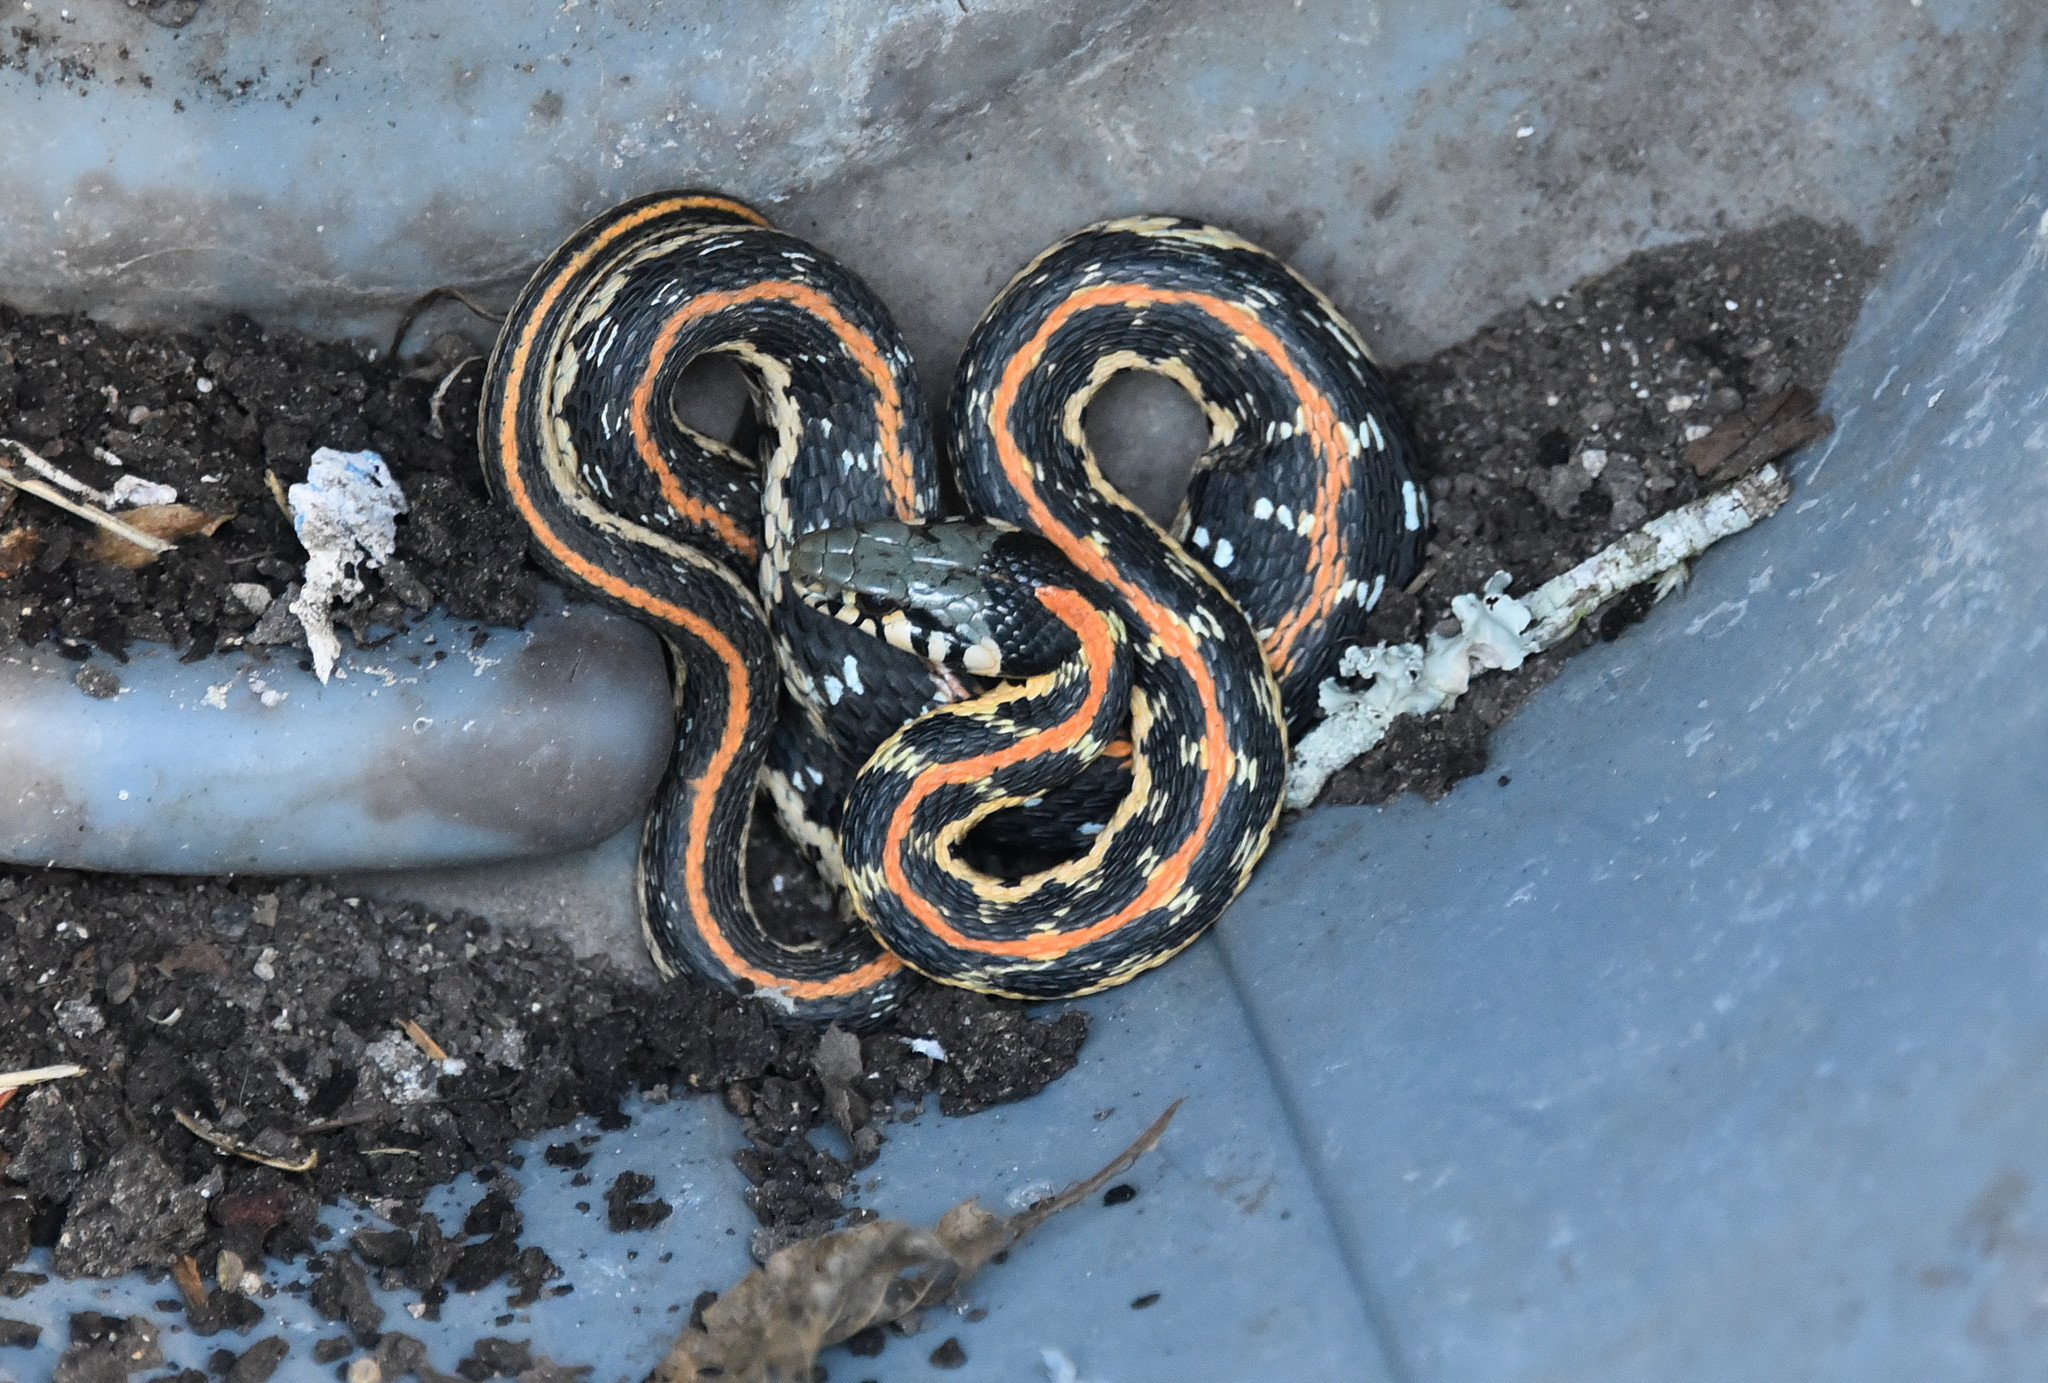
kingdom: Animalia
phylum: Chordata
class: Squamata
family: Colubridae
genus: Thamnophis
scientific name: Thamnophis cyrtopsis
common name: Black-necked gartersnake
